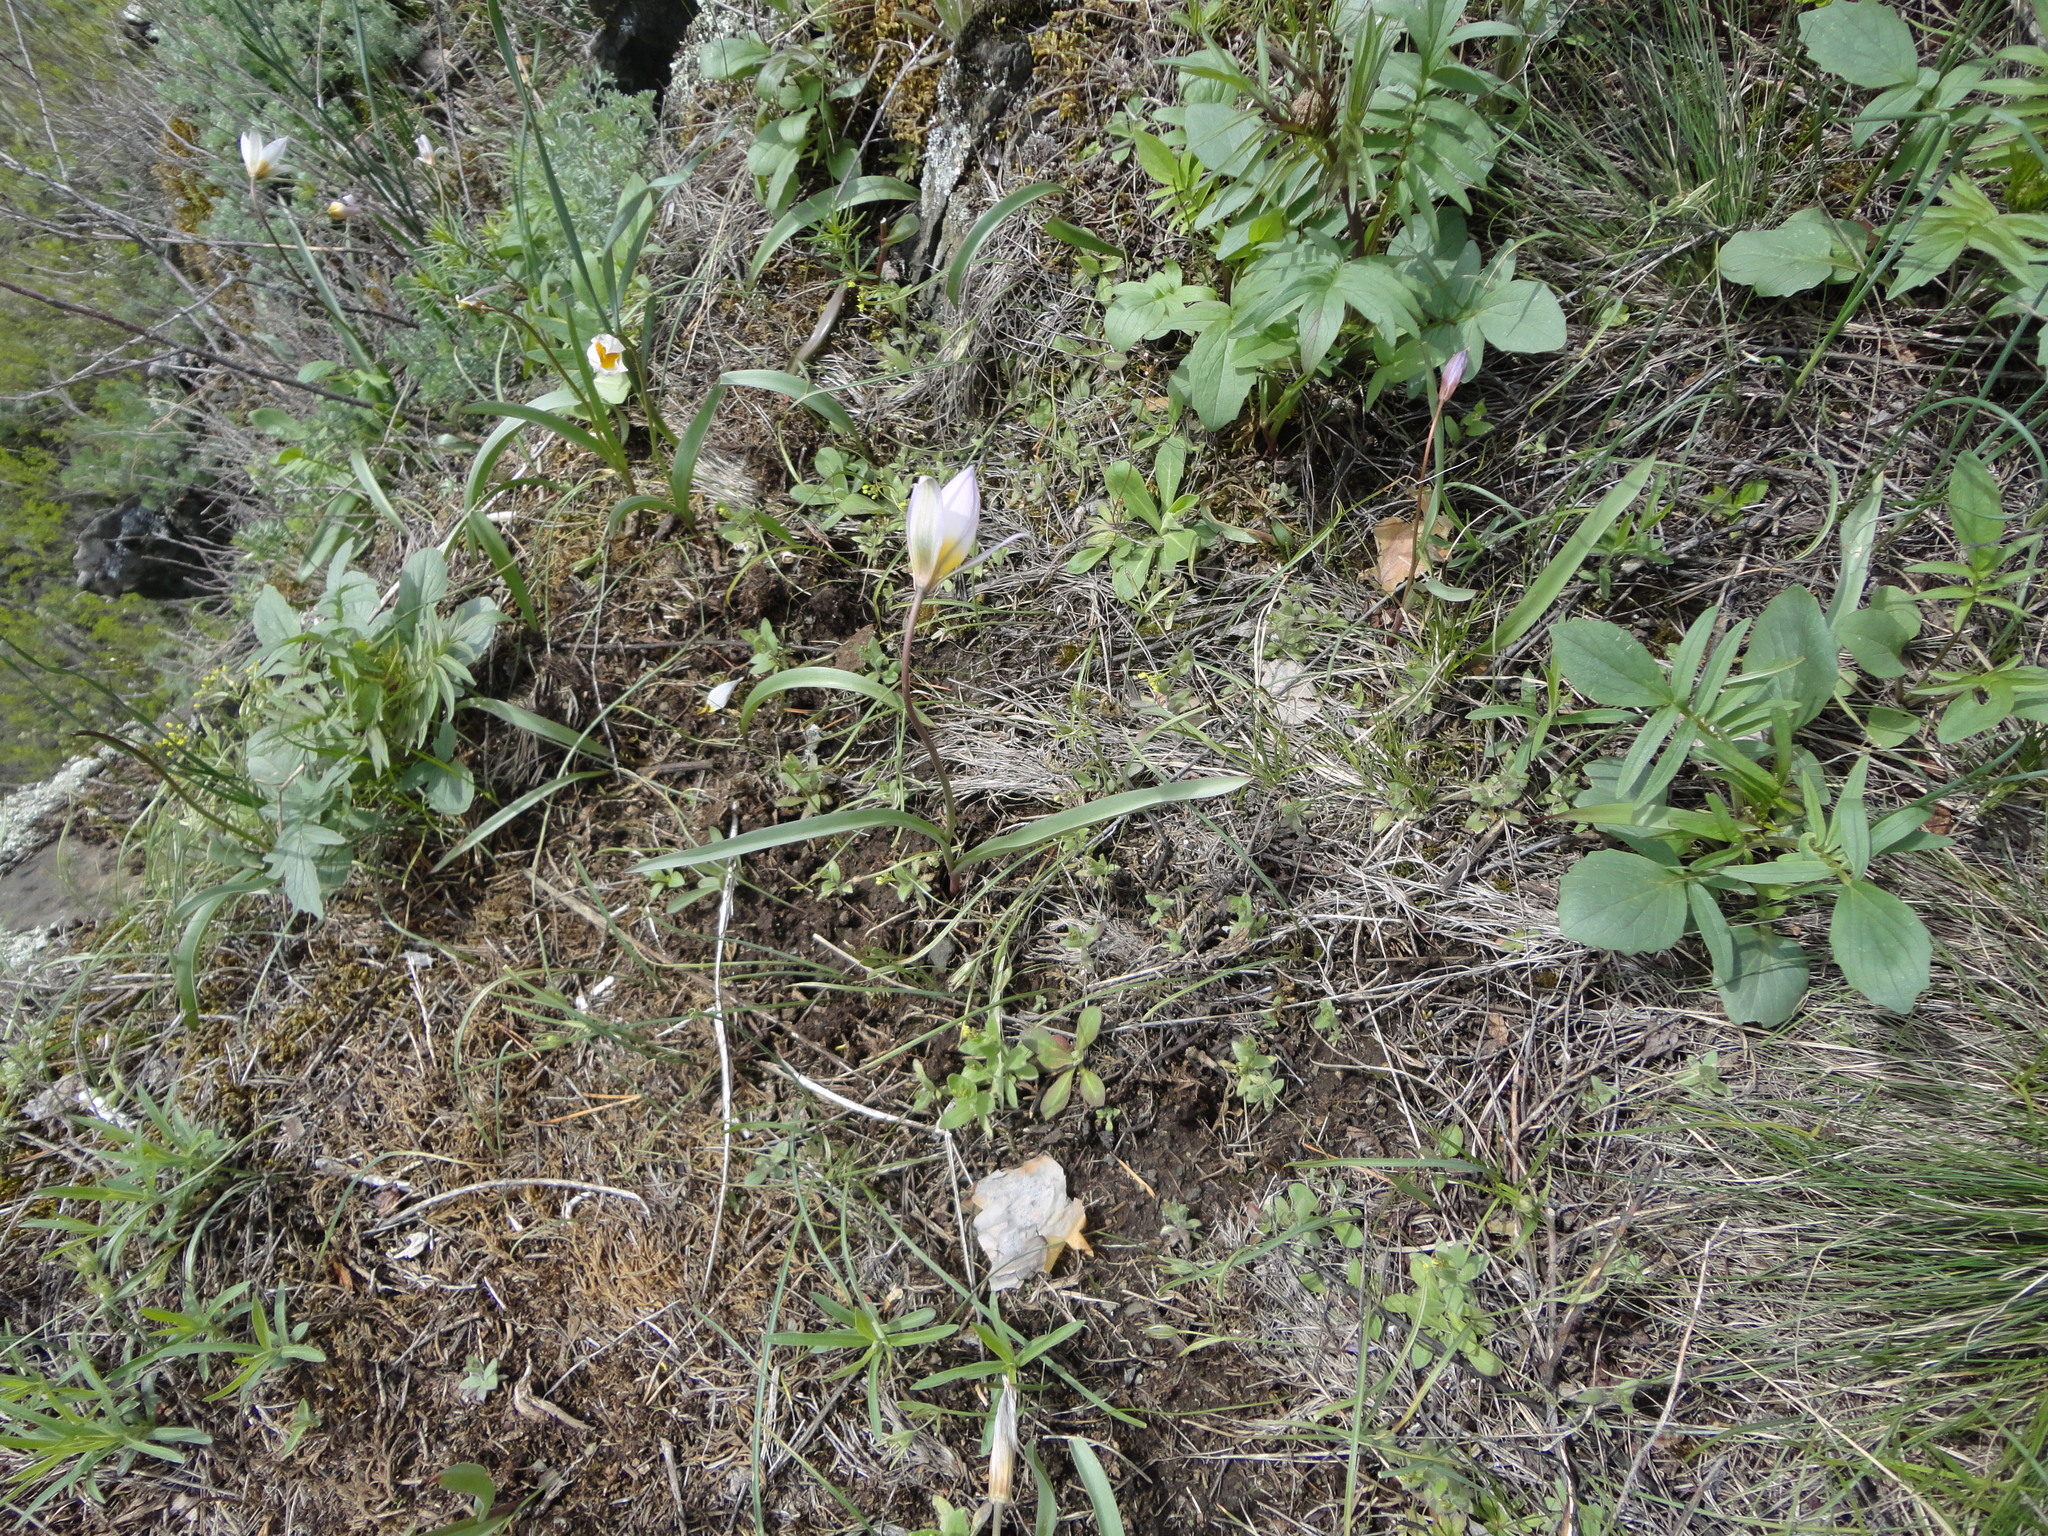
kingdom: Plantae
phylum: Tracheophyta
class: Liliopsida
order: Liliales
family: Liliaceae
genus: Tulipa
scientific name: Tulipa patens
